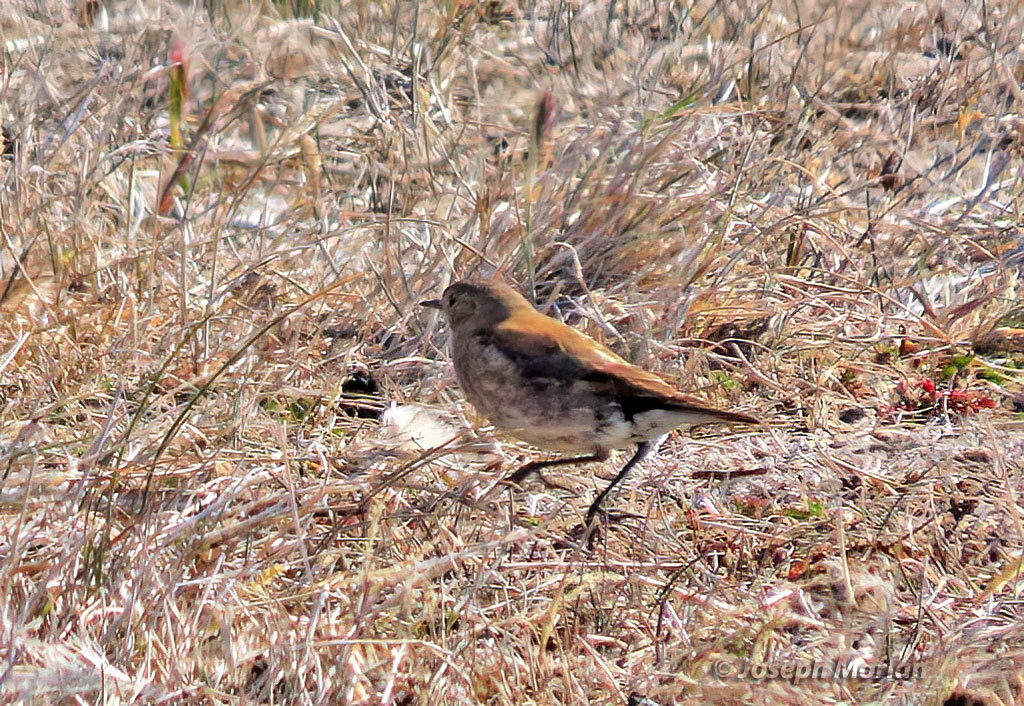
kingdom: Animalia
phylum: Chordata
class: Aves
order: Passeriformes
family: Tyrannidae
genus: Lessonia
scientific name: Lessonia rufa
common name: Austral negrito
